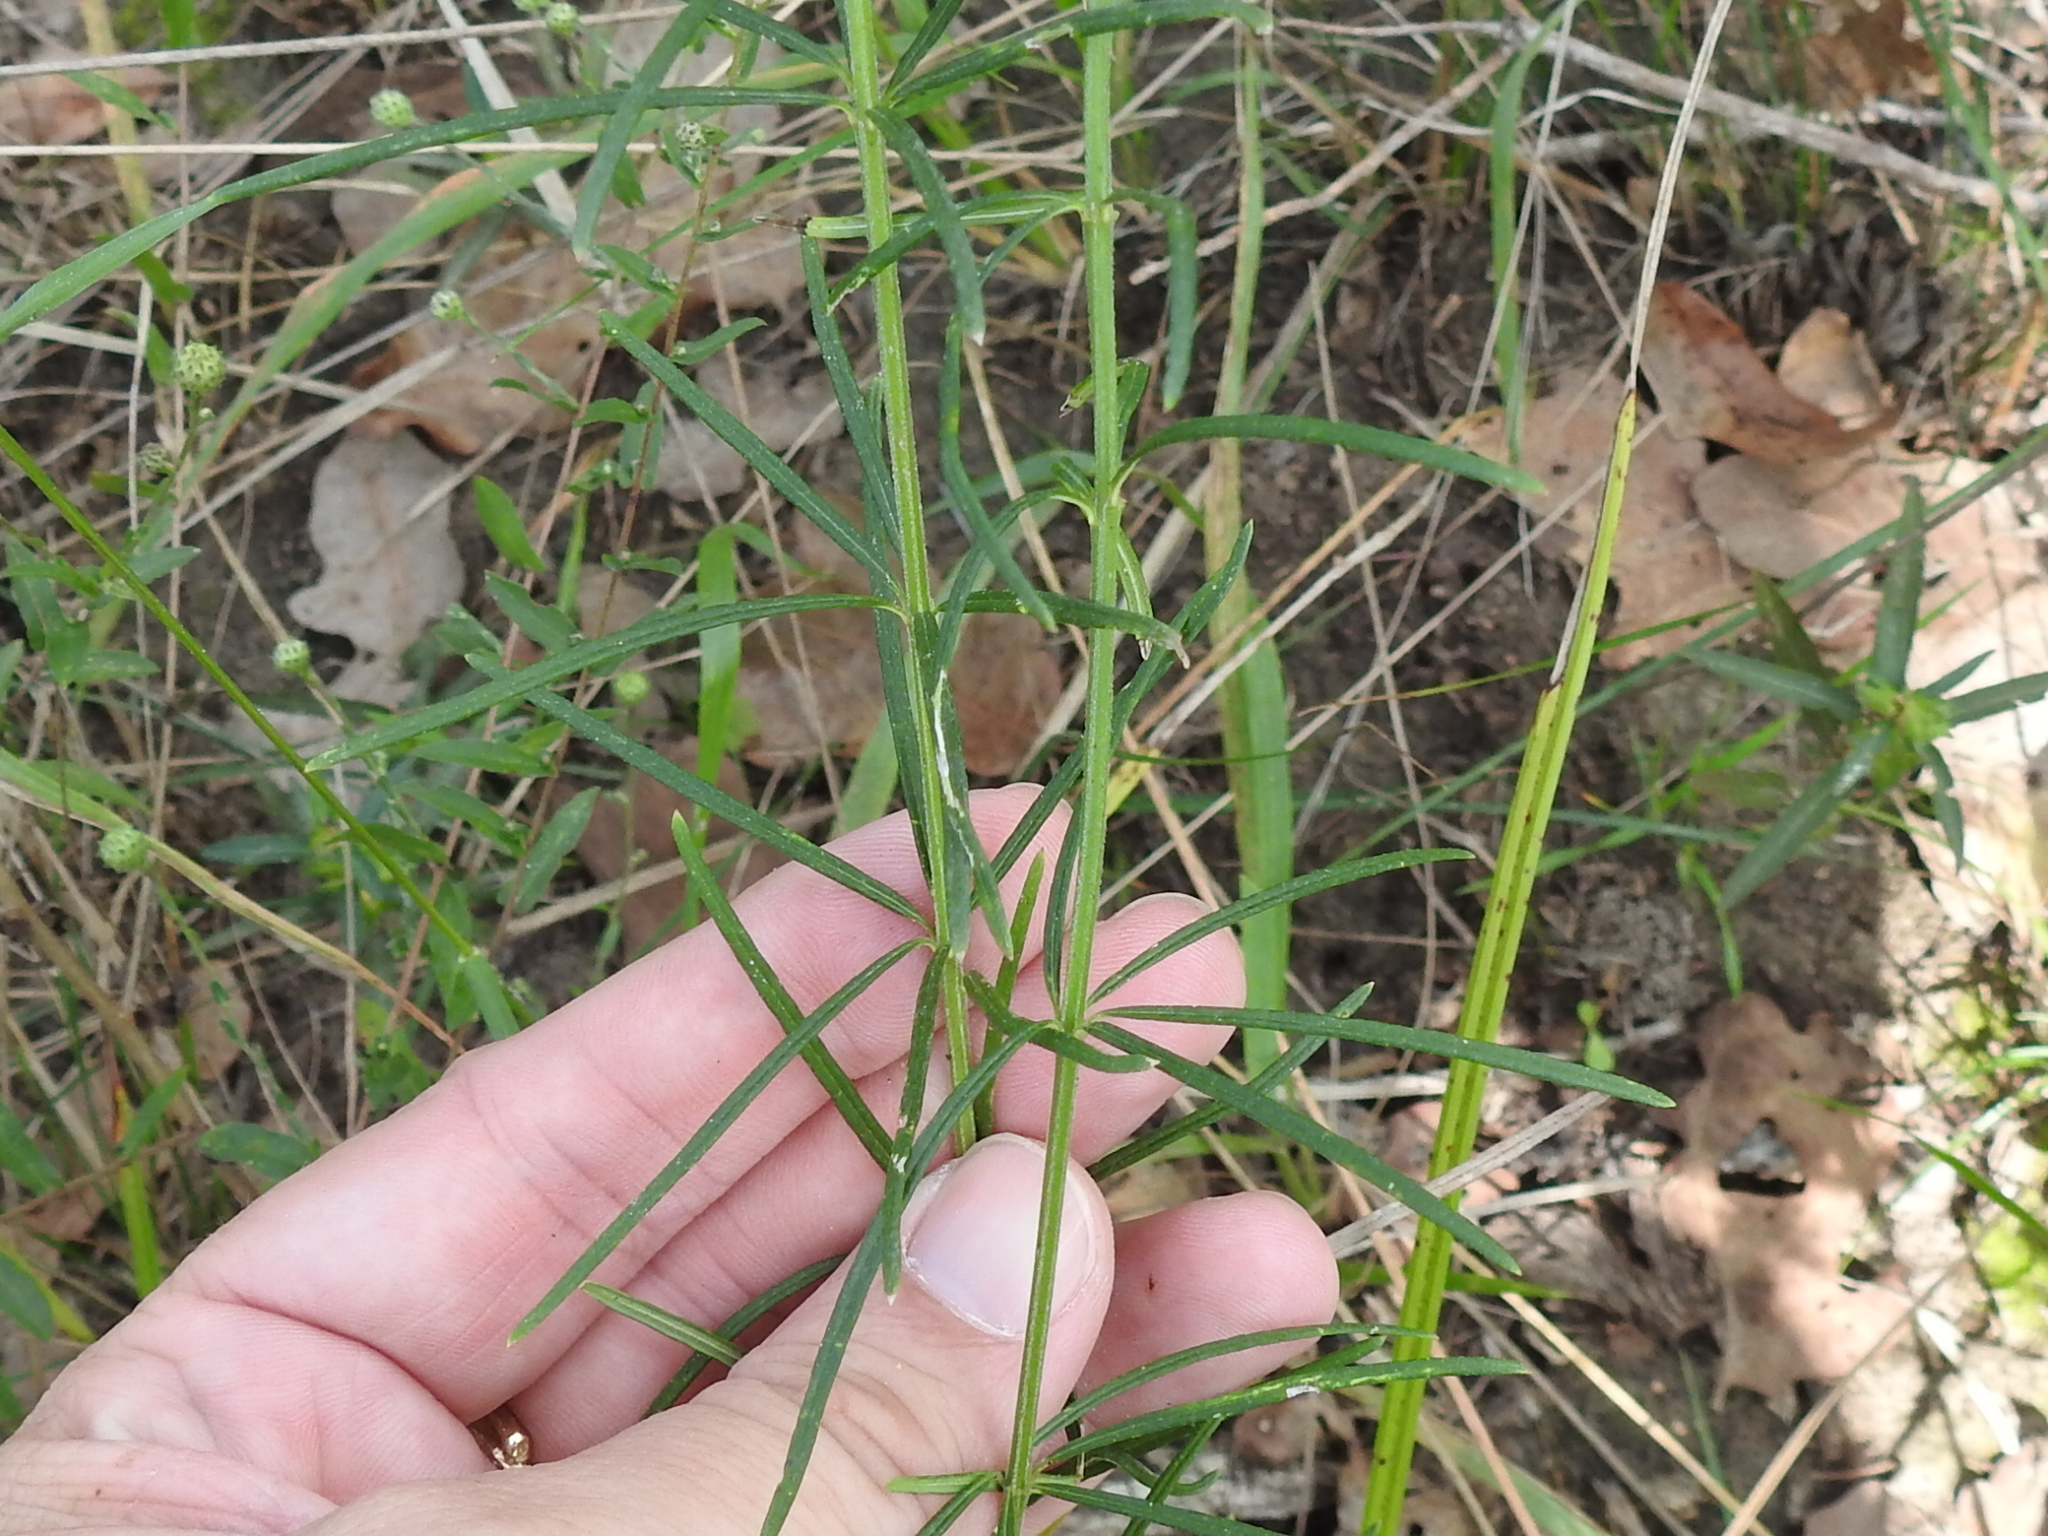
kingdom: Plantae
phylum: Tracheophyta
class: Magnoliopsida
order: Gentianales
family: Apocynaceae
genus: Asclepias
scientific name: Asclepias verticillata
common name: Eastern whorled milkweed
